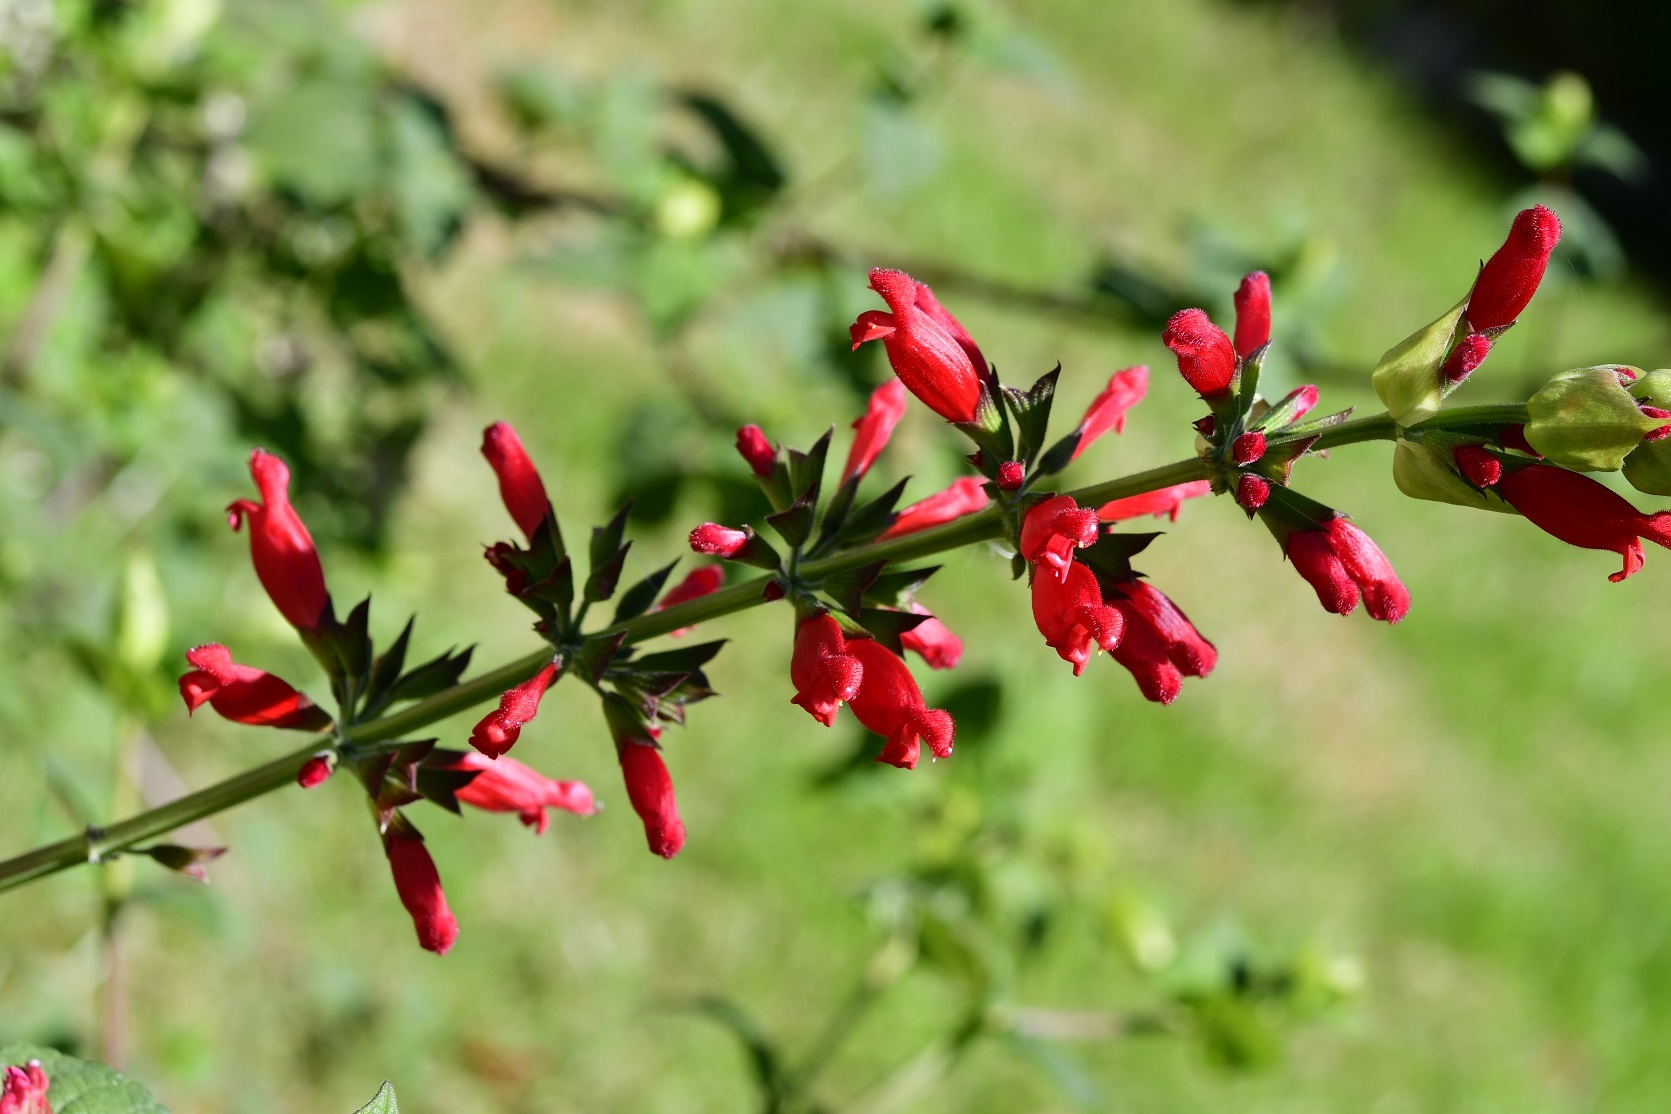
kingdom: Plantae
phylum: Tracheophyta
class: Magnoliopsida
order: Lamiales
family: Lamiaceae
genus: Salvia
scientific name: Salvia holwayi
